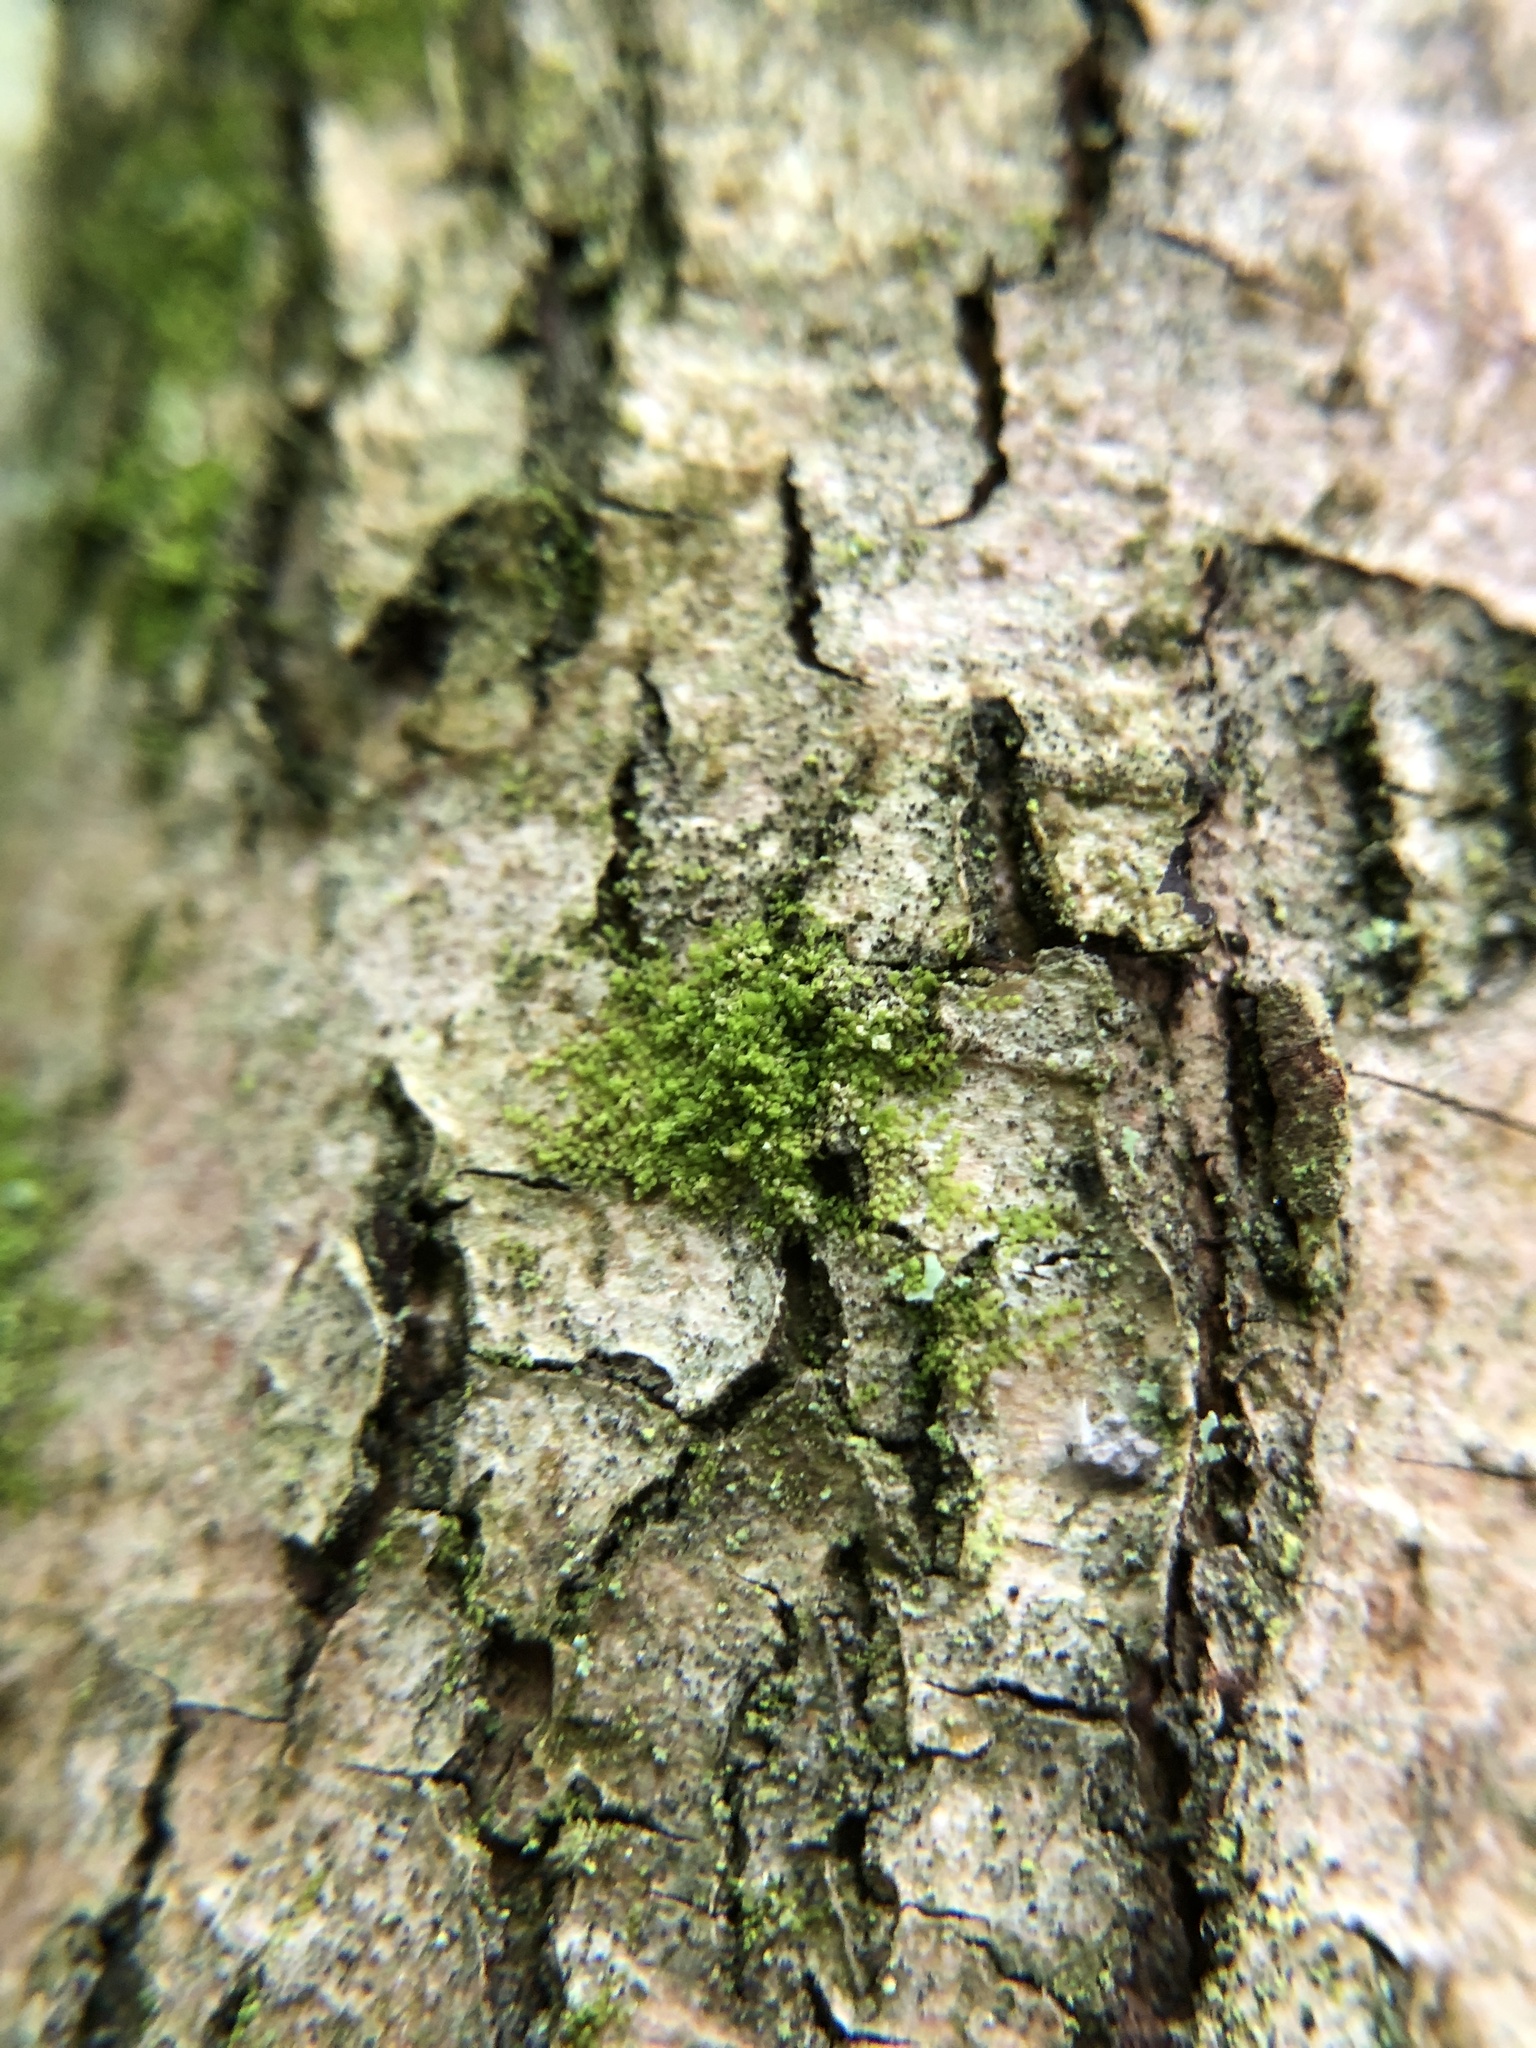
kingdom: Plantae
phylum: Marchantiophyta
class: Jungermanniopsida
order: Porellales
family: Lejeuneaceae
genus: Myriocoleopsis
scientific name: Myriocoleopsis minutissima
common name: Minute pouncewort
